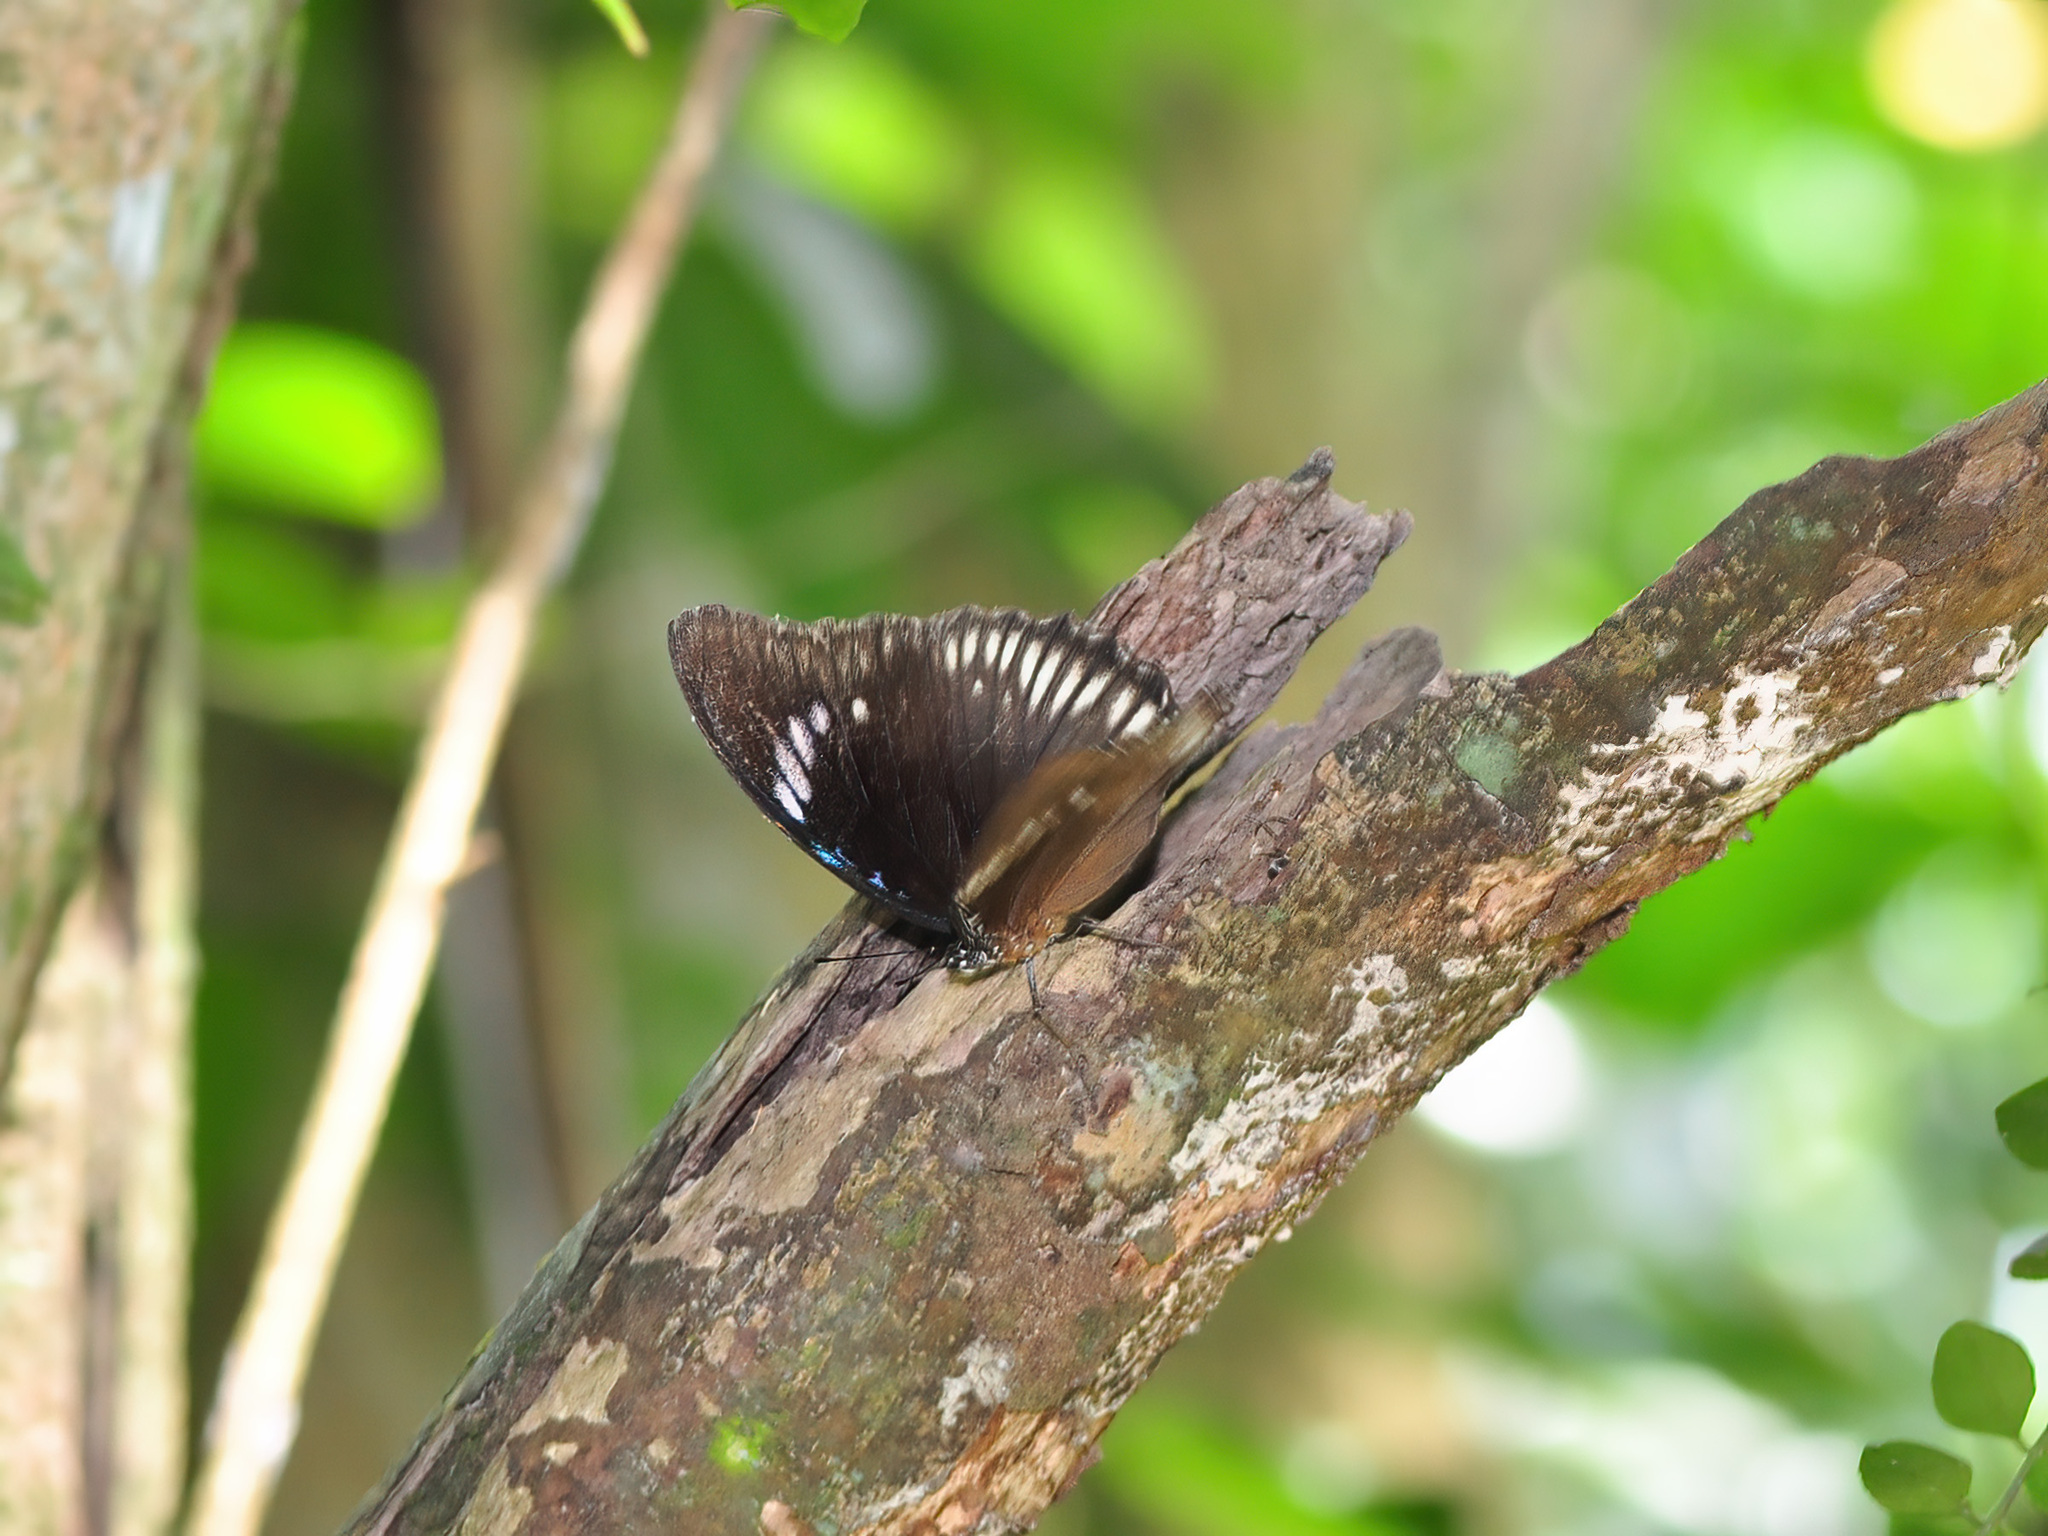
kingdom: Animalia
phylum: Arthropoda
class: Insecta
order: Lepidoptera
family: Nymphalidae
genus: Hypolimnas
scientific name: Hypolimnas bolina
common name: Great eggfly
